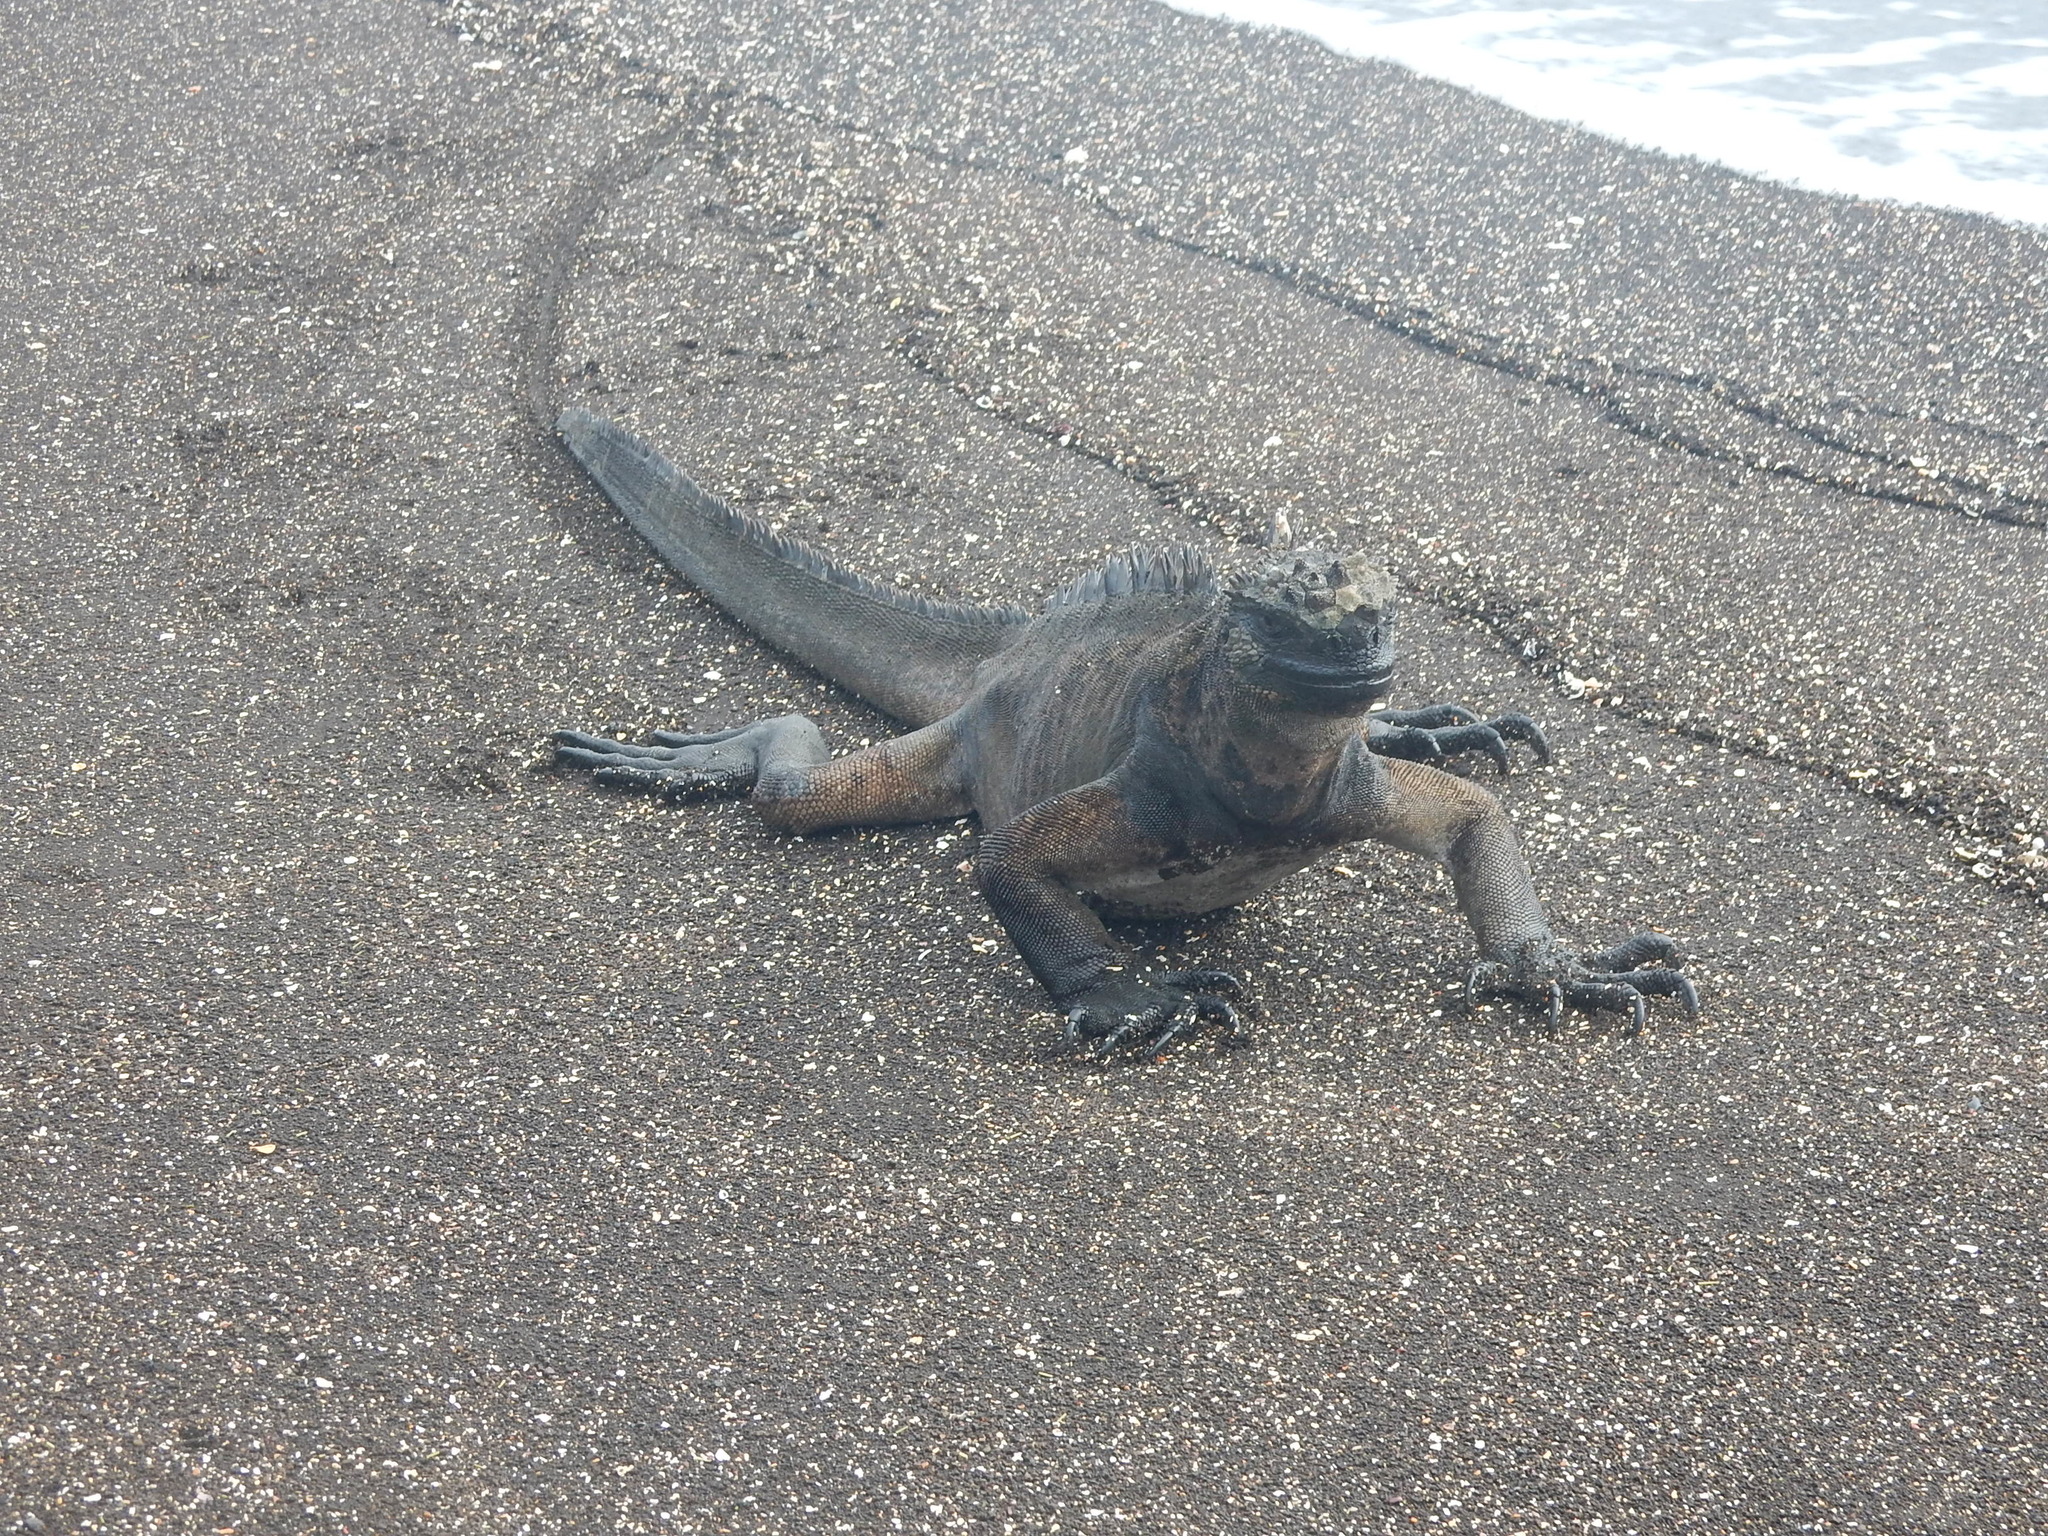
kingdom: Animalia
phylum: Chordata
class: Squamata
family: Iguanidae
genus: Amblyrhynchus
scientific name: Amblyrhynchus cristatus
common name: Marine iguana
